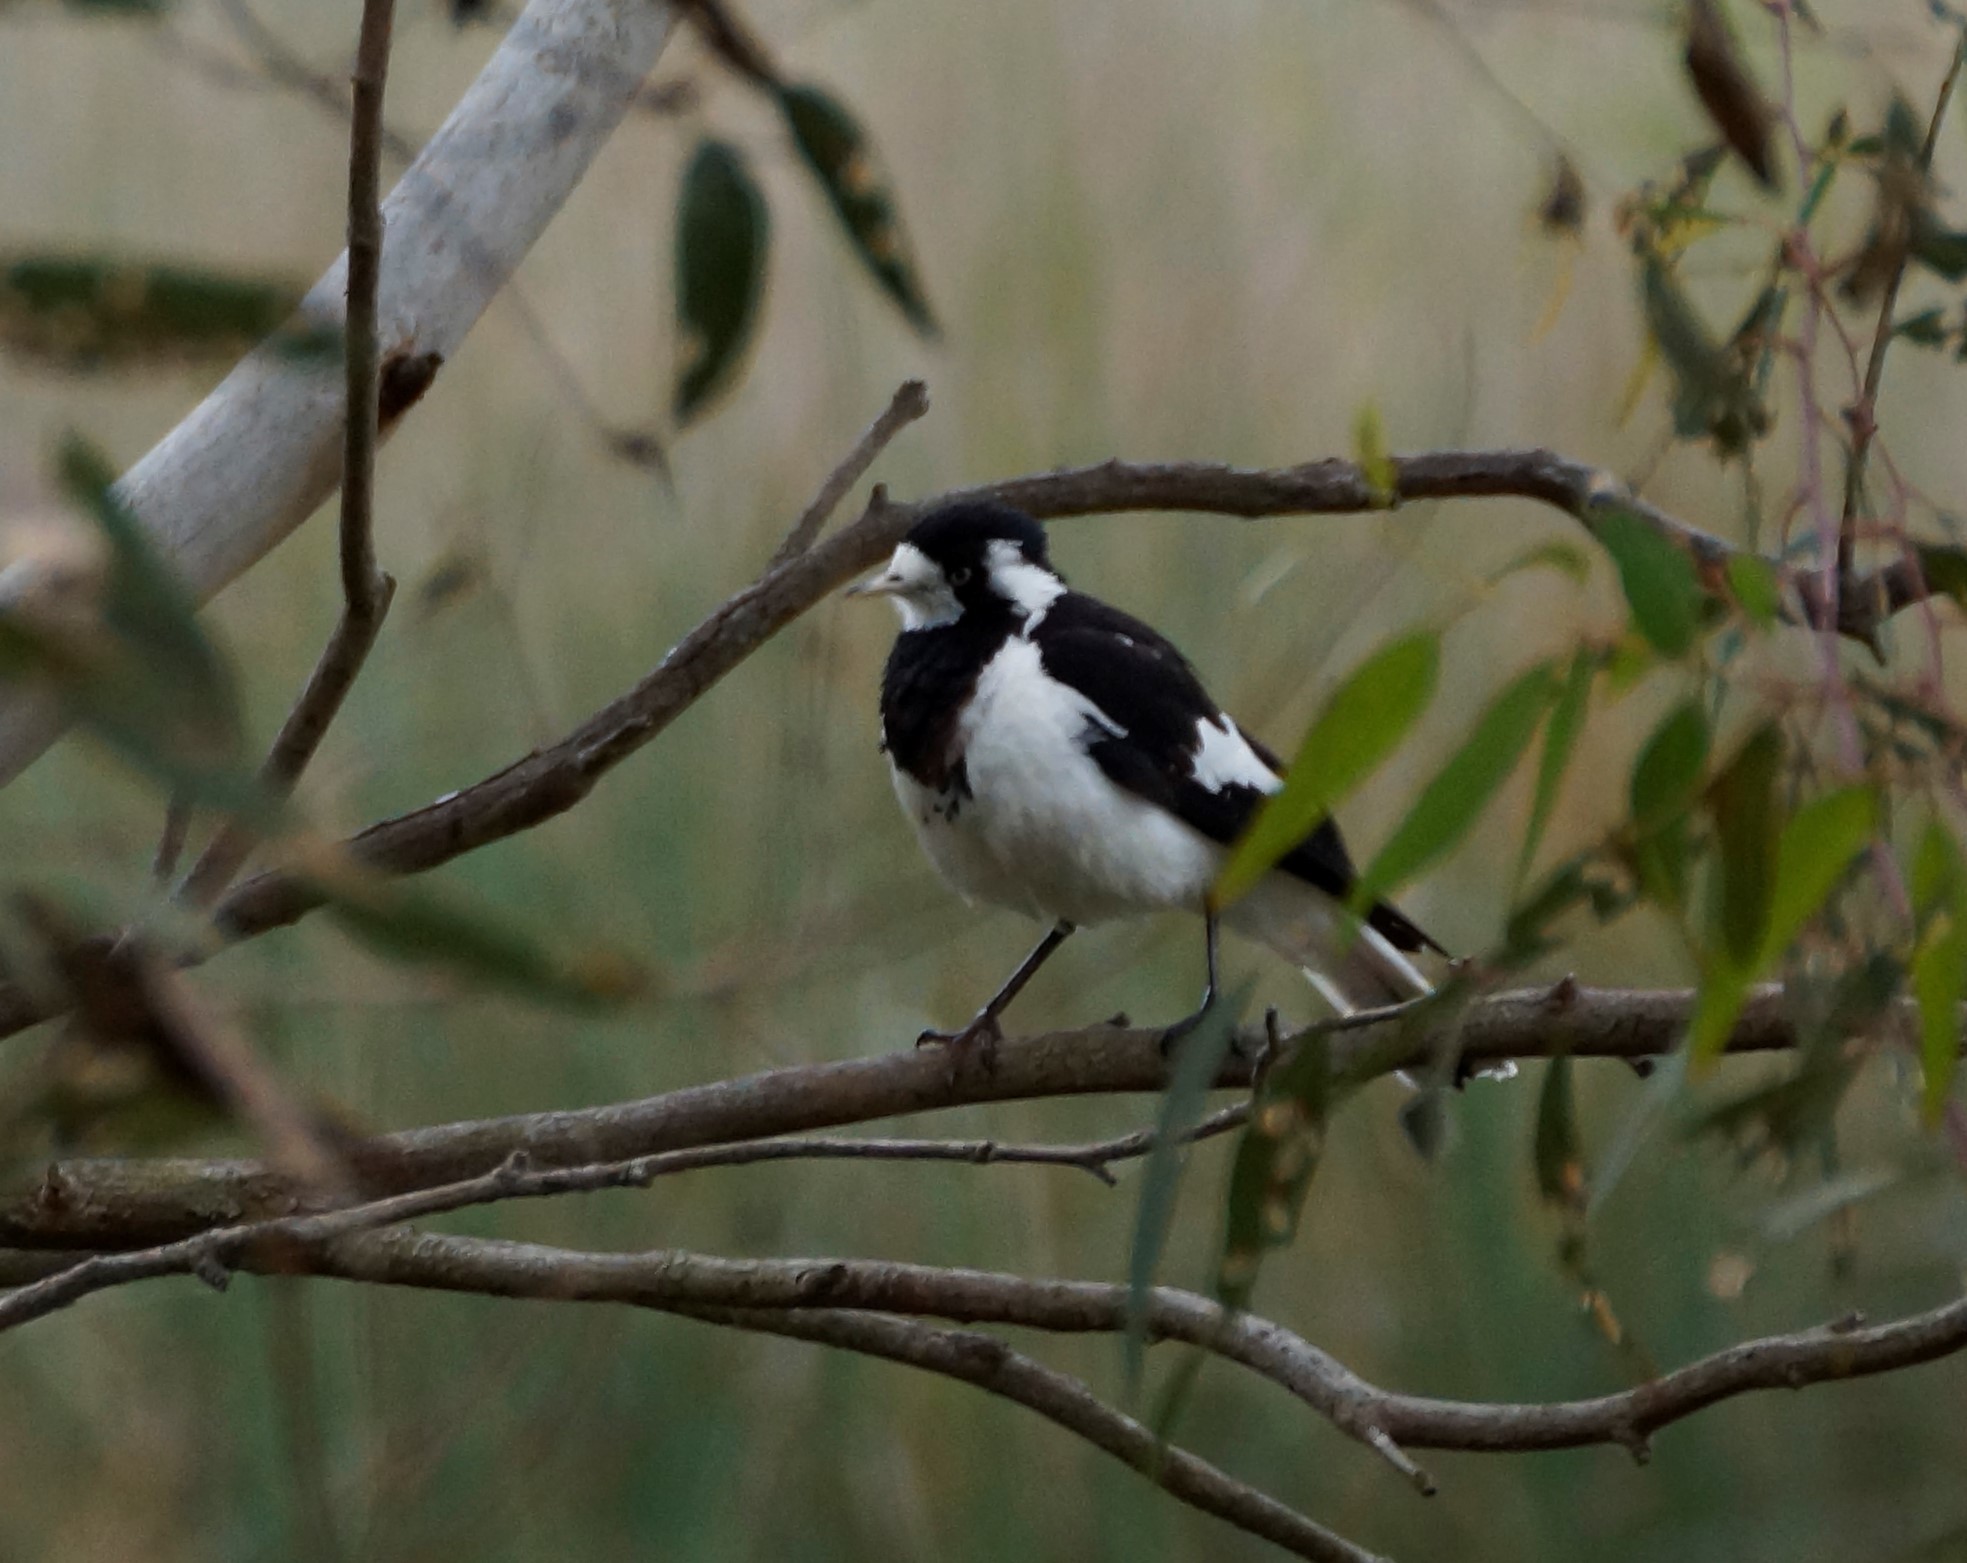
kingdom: Animalia
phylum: Chordata
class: Aves
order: Passeriformes
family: Monarchidae
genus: Grallina
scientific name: Grallina cyanoleuca
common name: Magpie-lark
